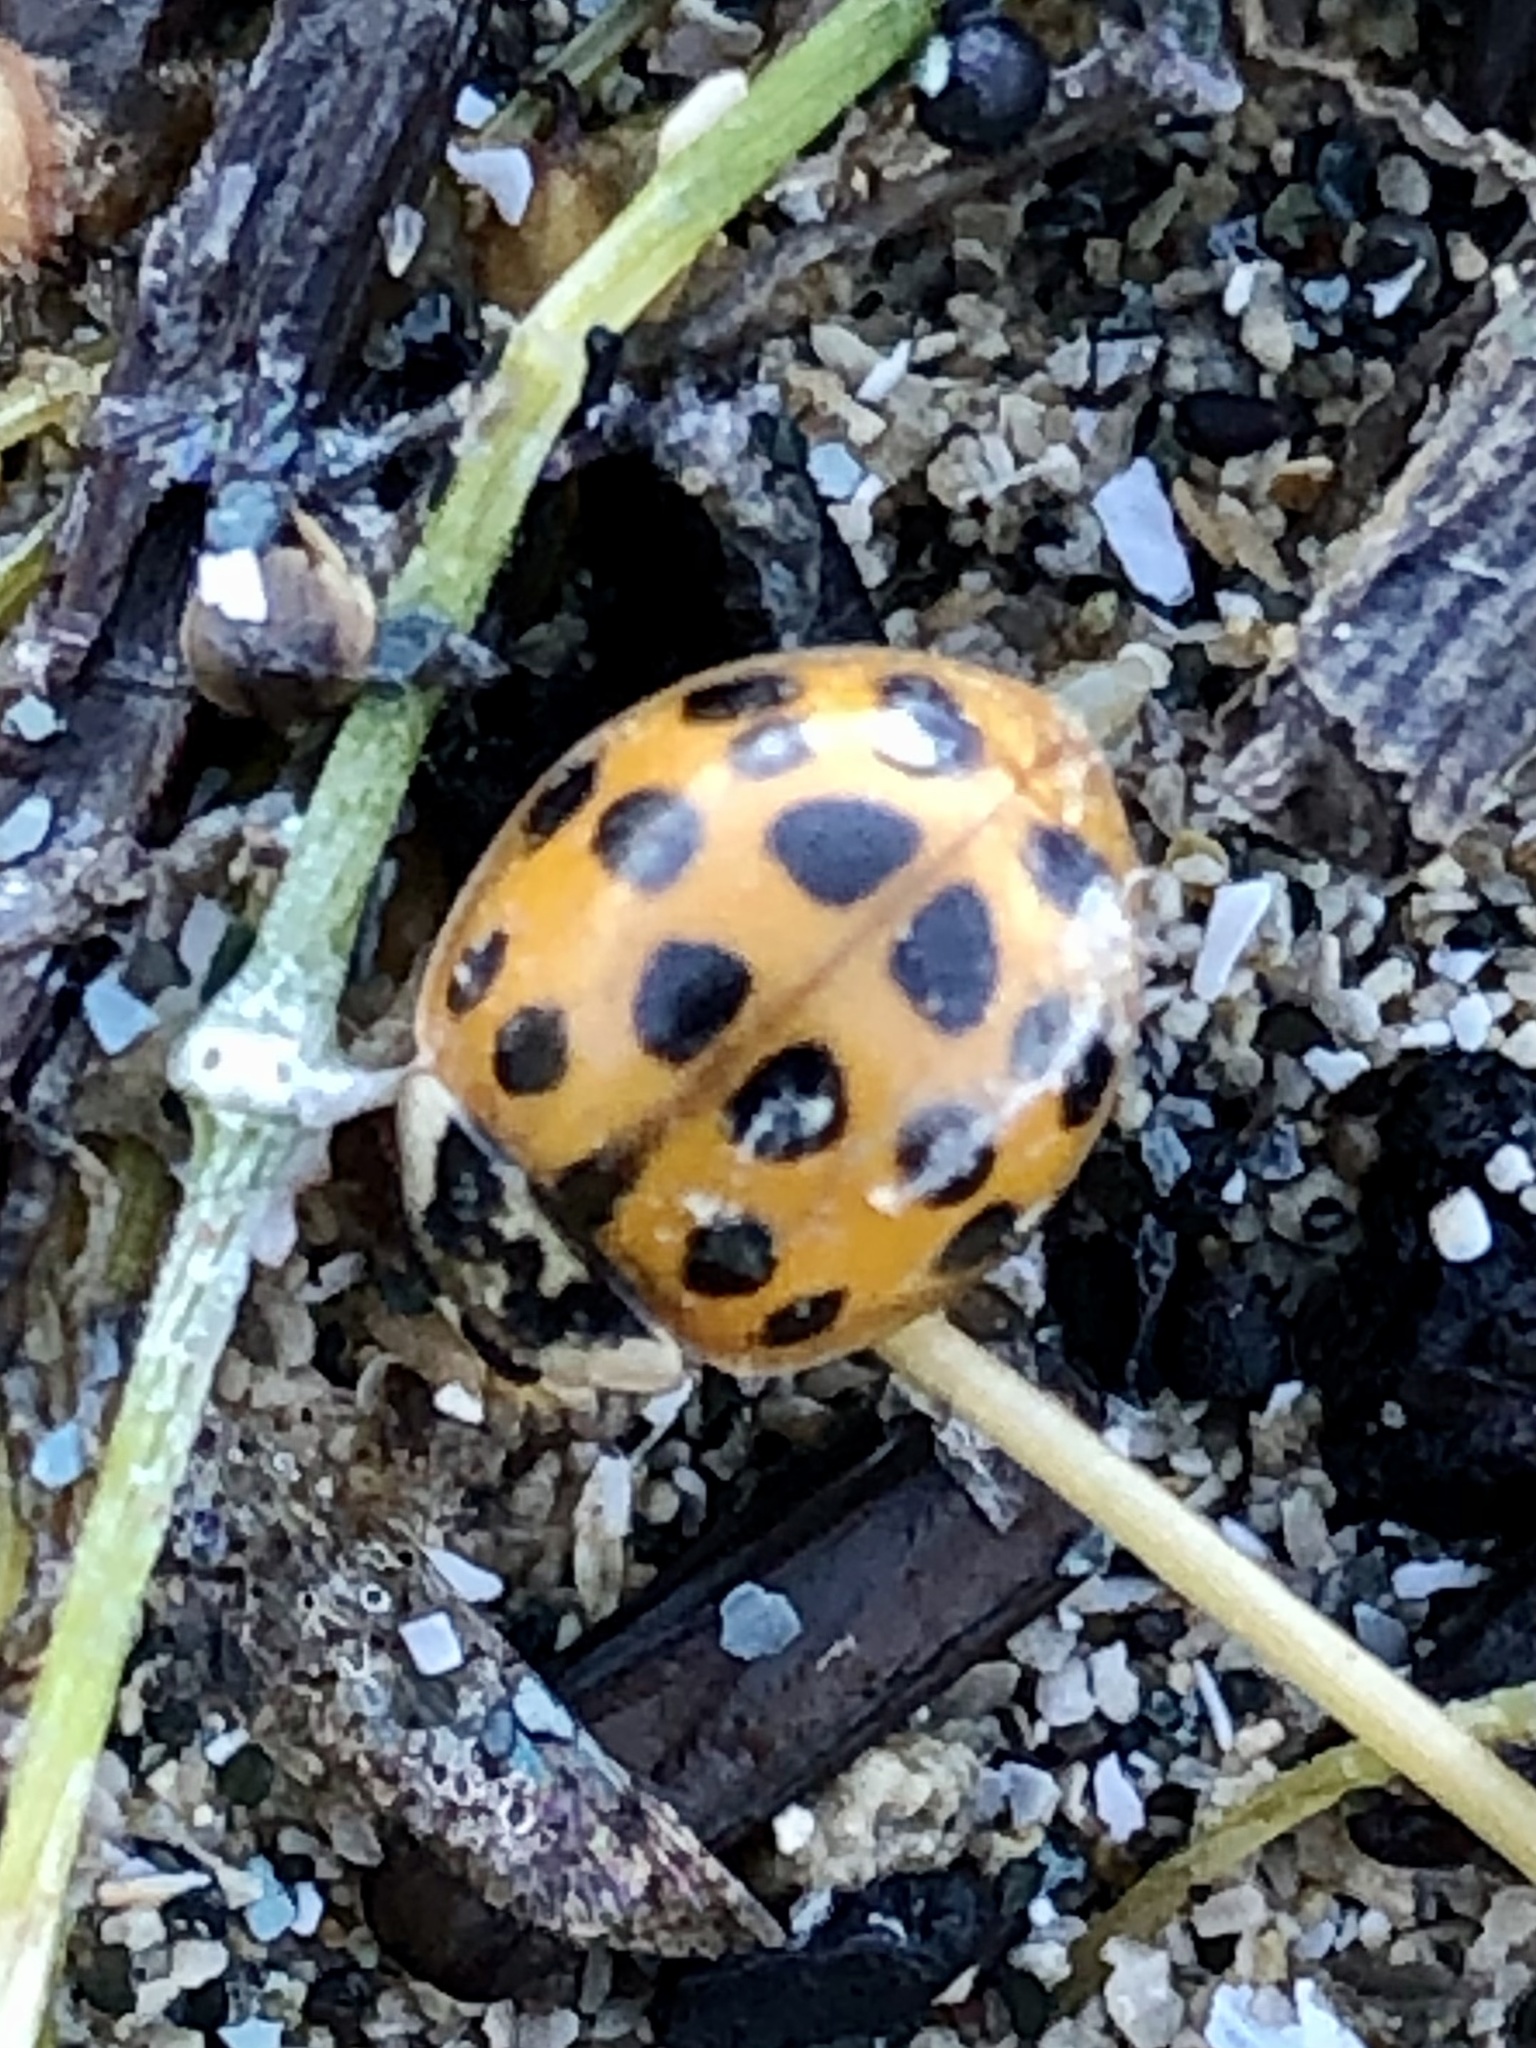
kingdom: Animalia
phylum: Arthropoda
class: Insecta
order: Coleoptera
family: Coccinellidae
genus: Harmonia
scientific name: Harmonia axyridis
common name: Harlequin ladybird
